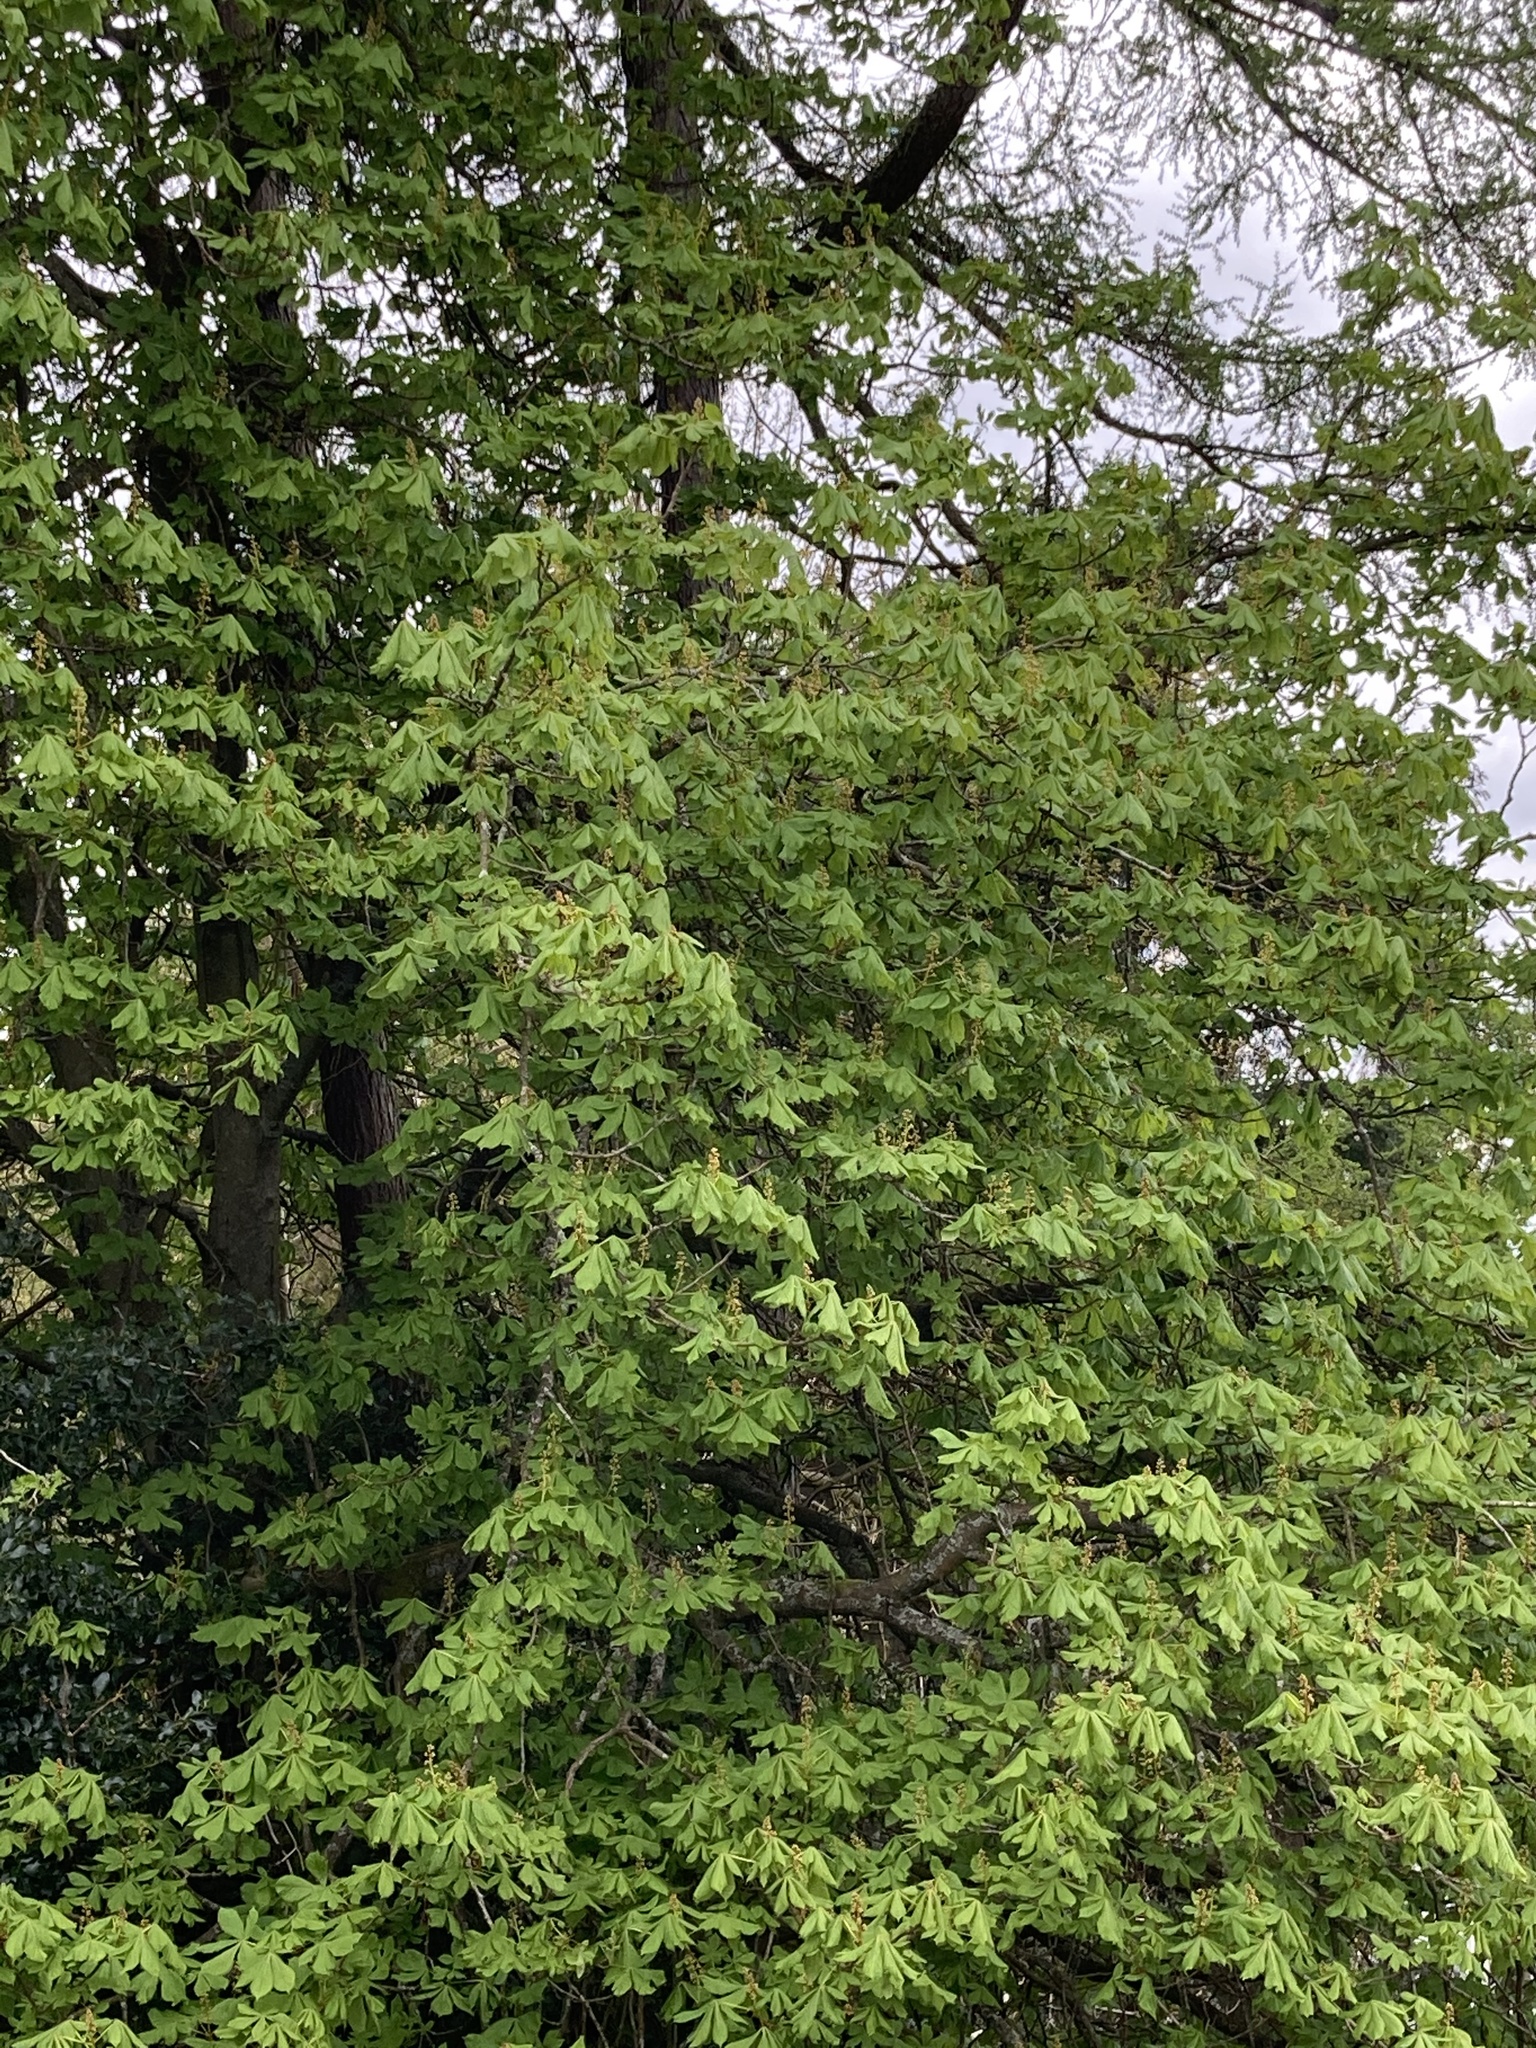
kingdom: Plantae
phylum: Tracheophyta
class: Magnoliopsida
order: Sapindales
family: Sapindaceae
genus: Aesculus
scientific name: Aesculus hippocastanum
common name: Horse-chestnut
